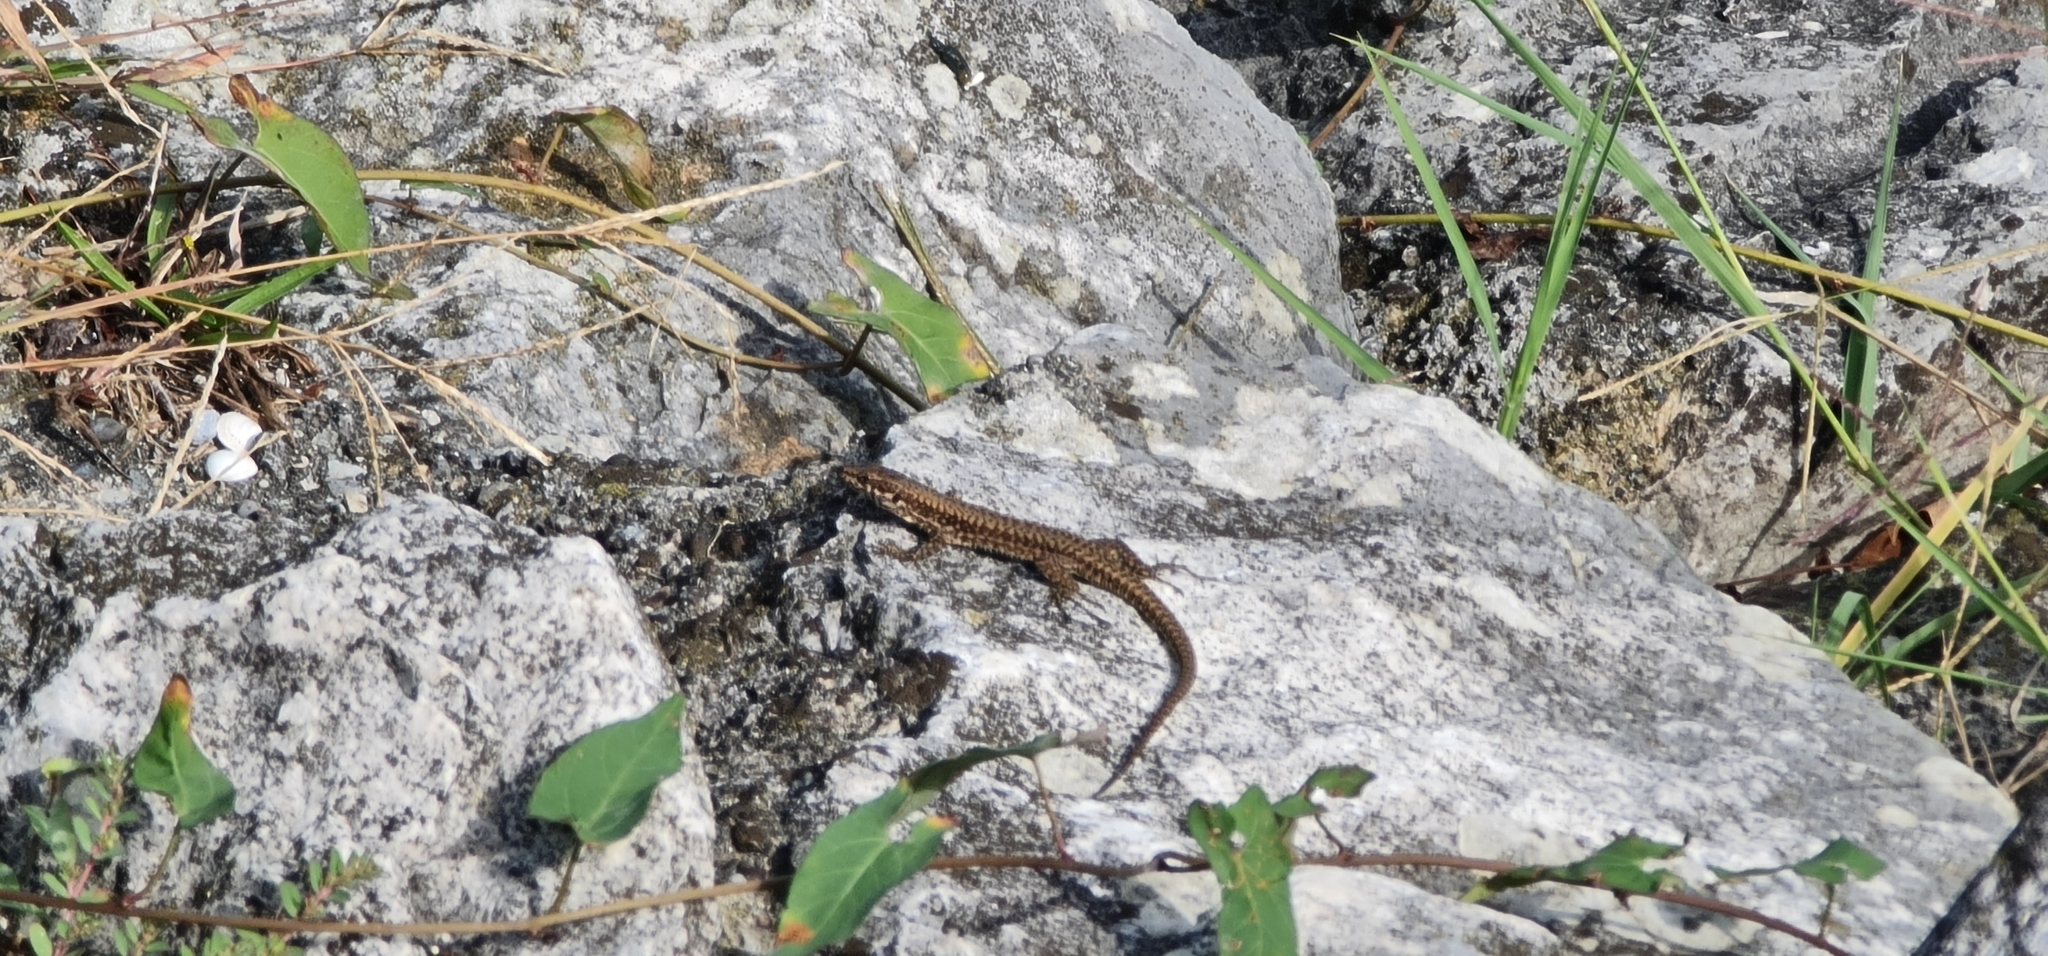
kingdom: Animalia
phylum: Chordata
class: Squamata
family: Lacertidae
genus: Podarcis
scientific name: Podarcis muralis
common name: Common wall lizard
